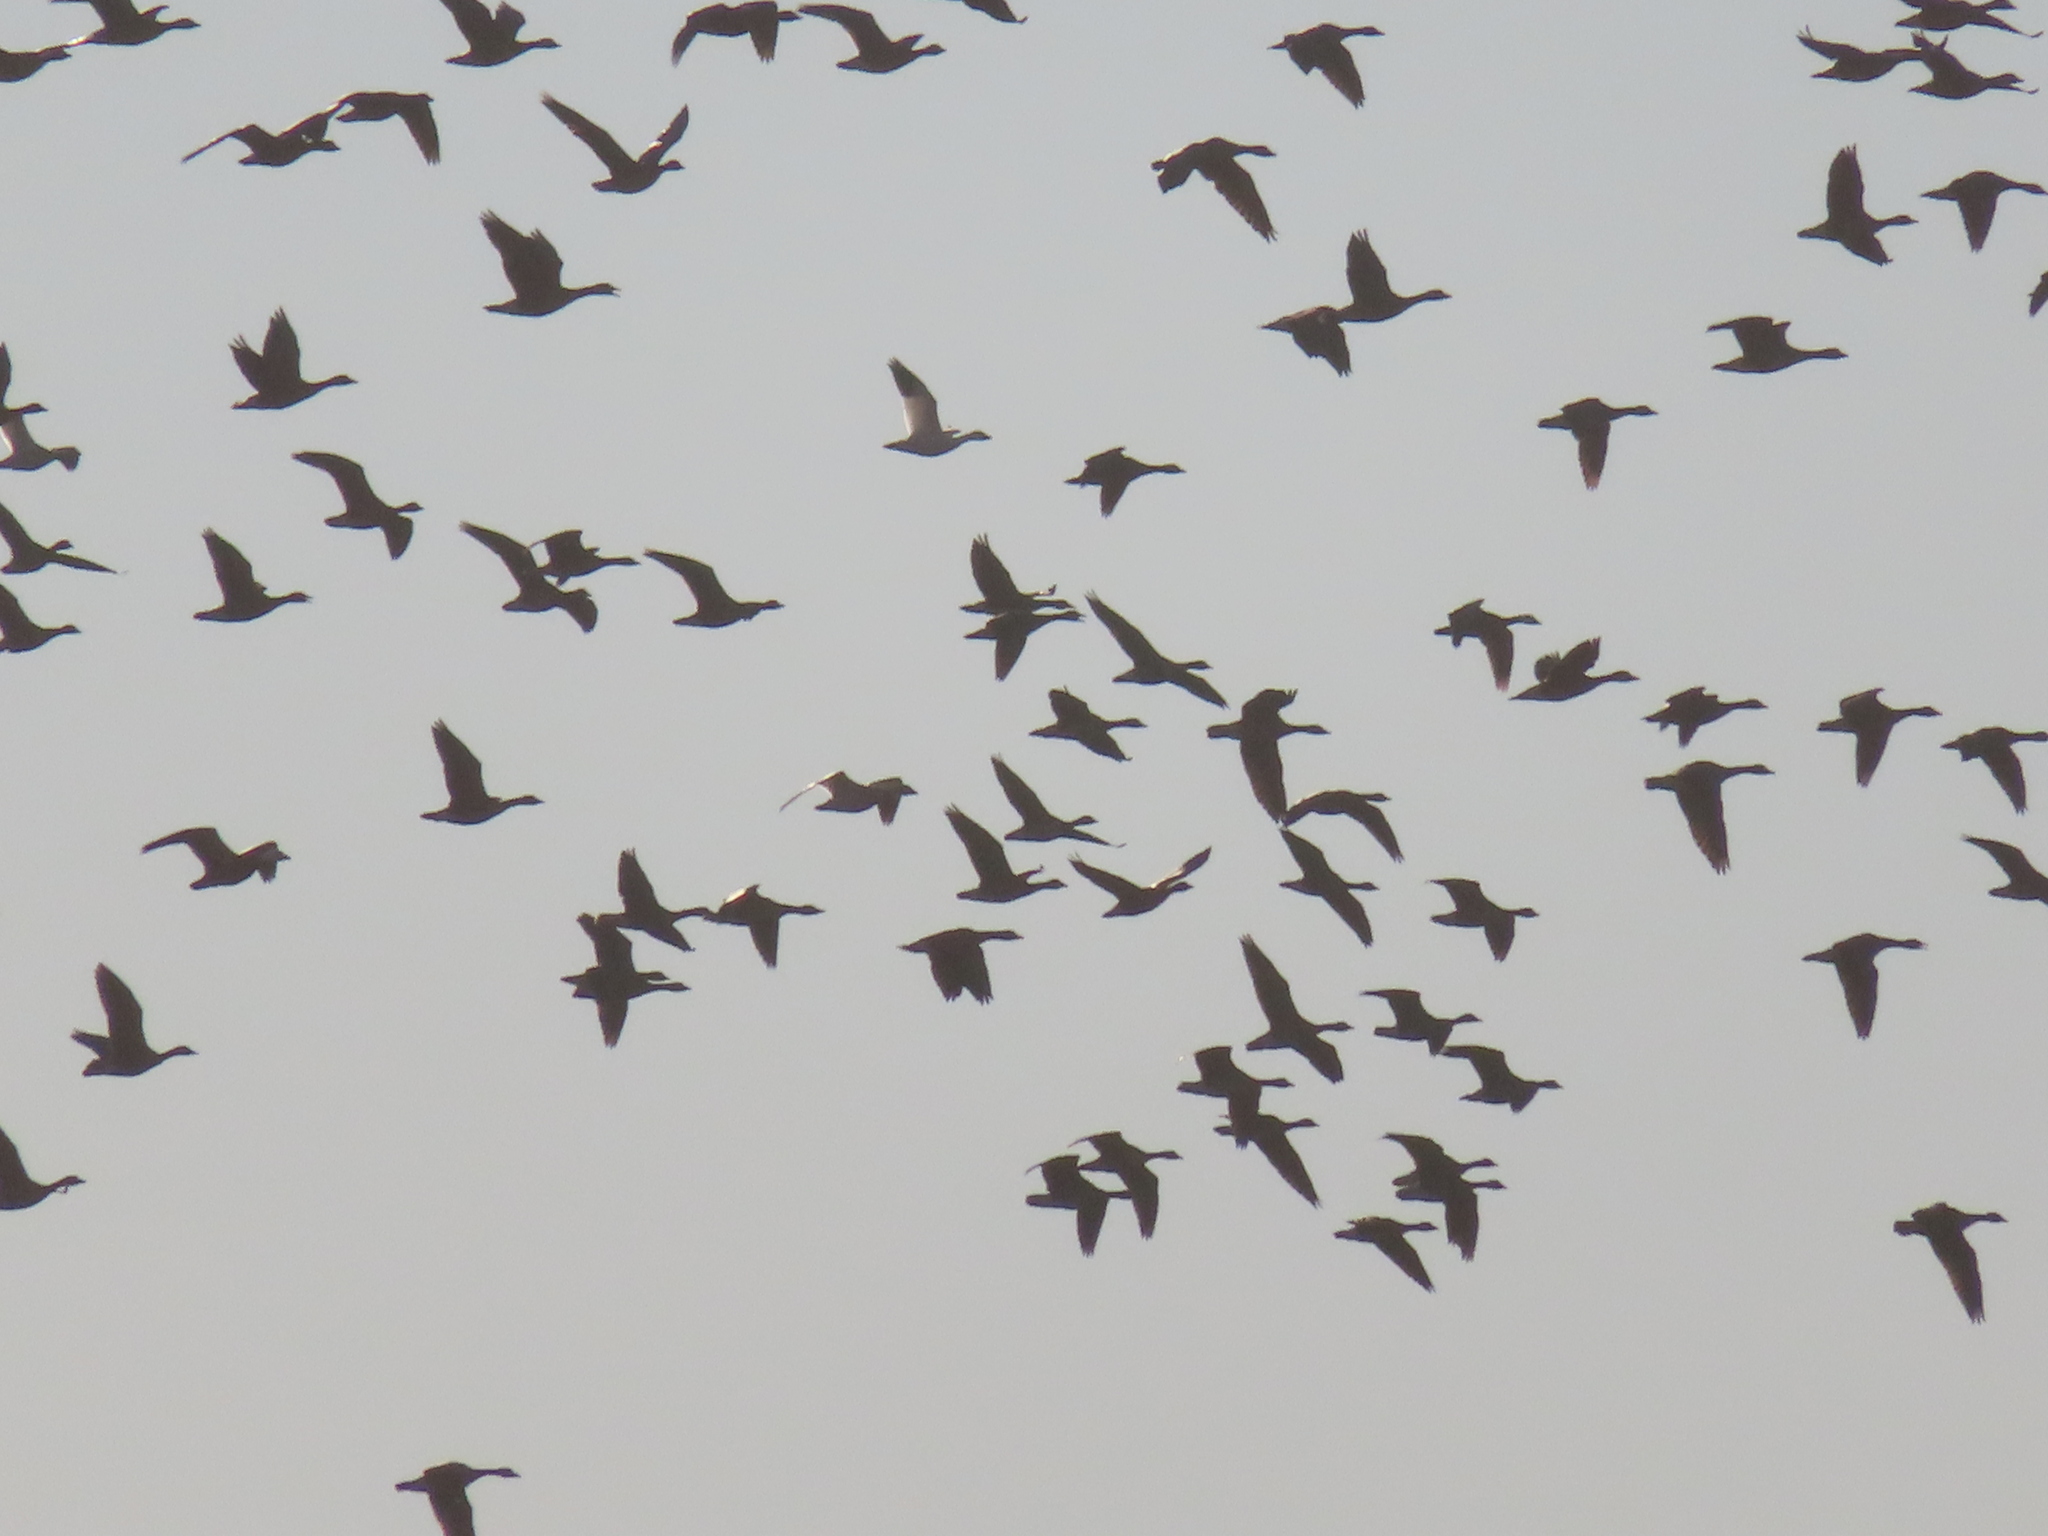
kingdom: Animalia
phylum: Chordata
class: Aves
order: Anseriformes
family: Anatidae
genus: Anser
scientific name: Anser caerulescens
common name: Snow goose
